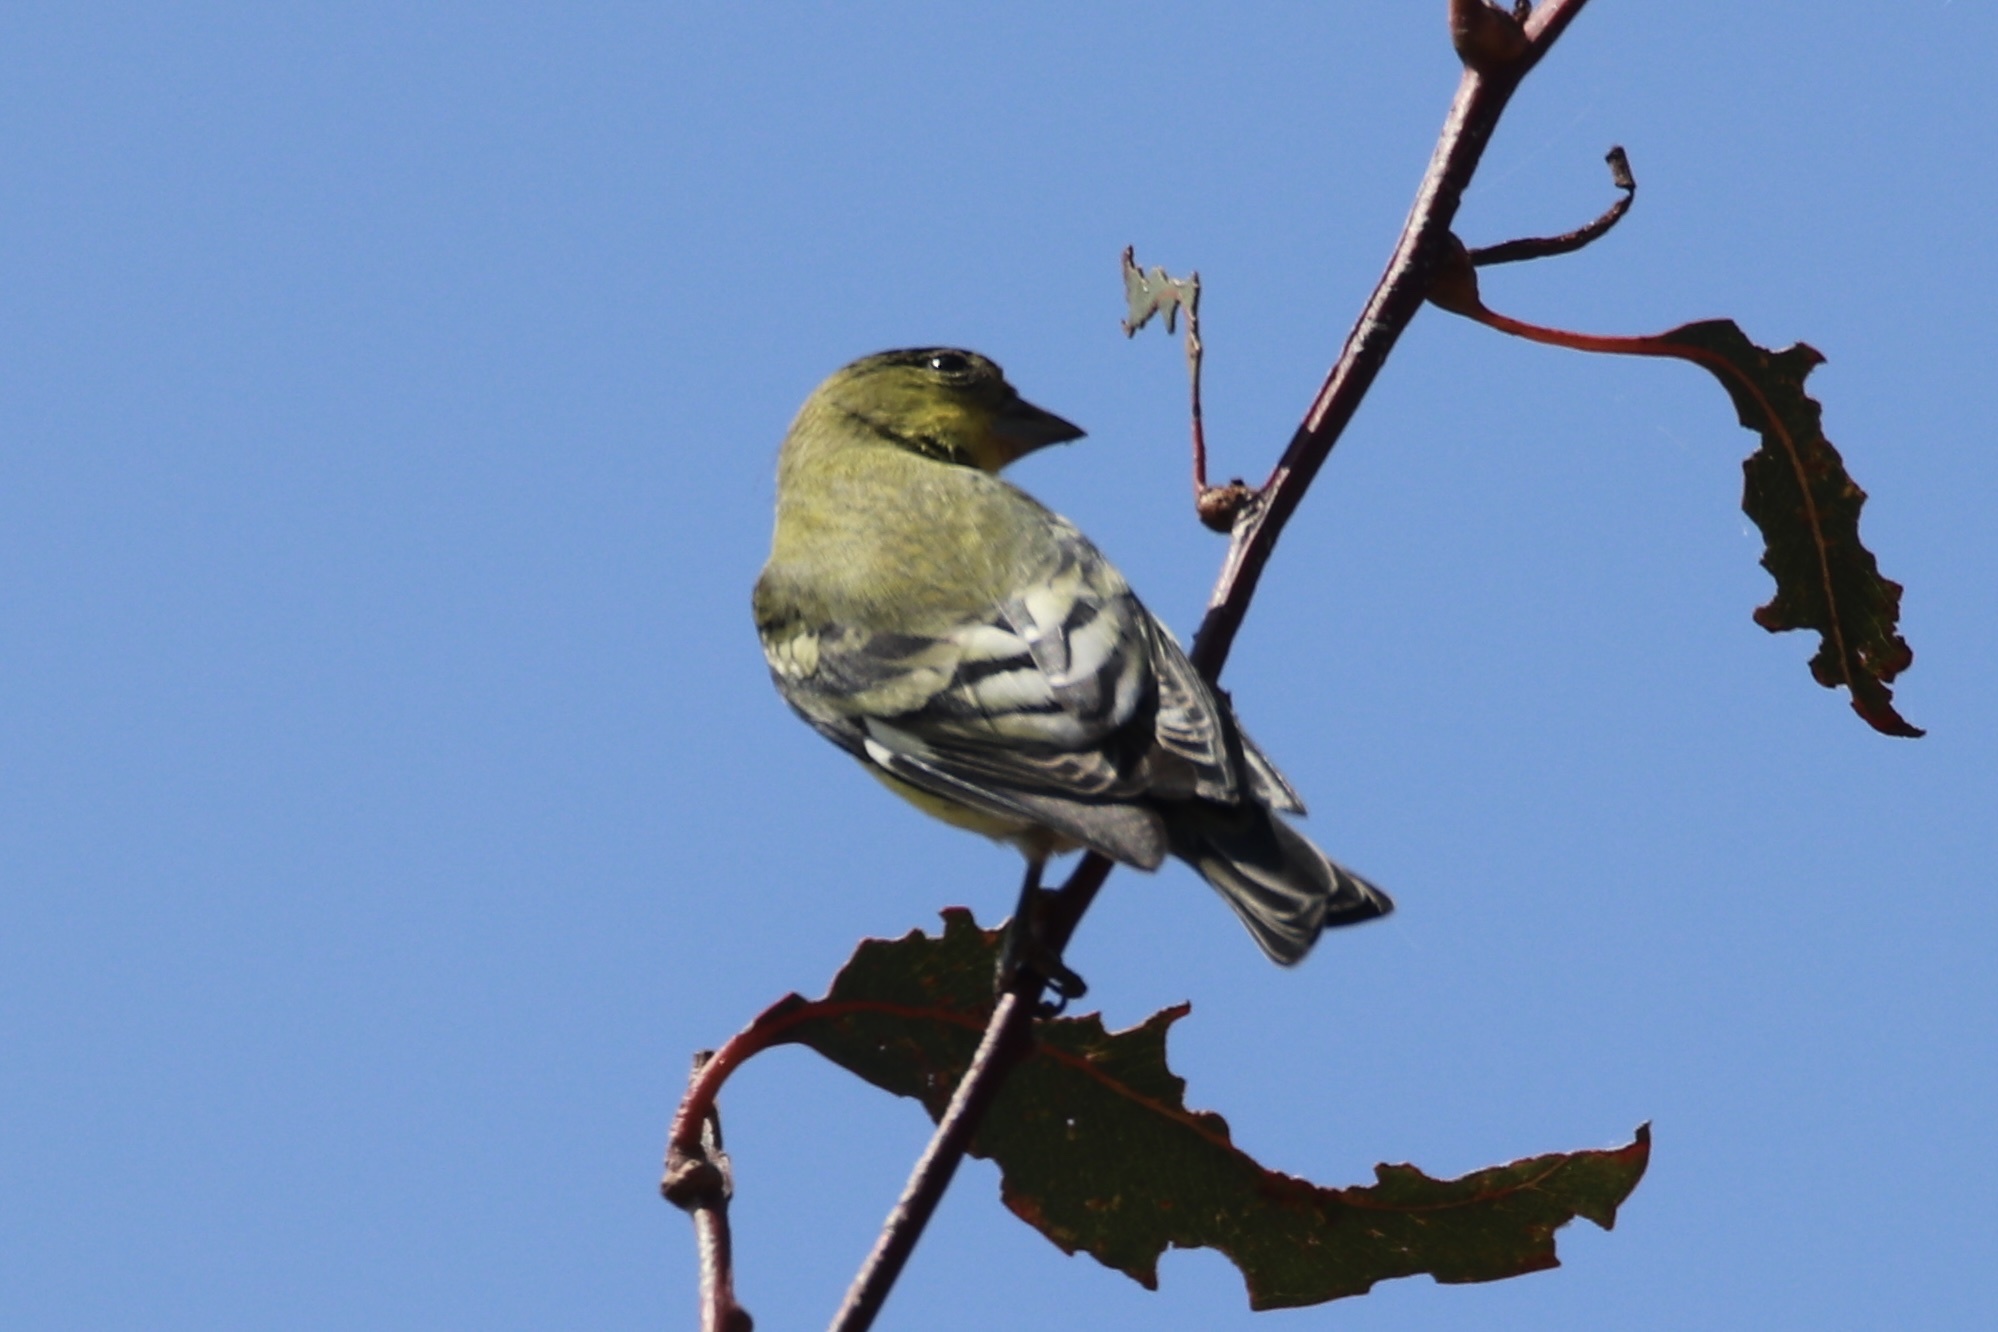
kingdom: Animalia
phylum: Chordata
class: Aves
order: Passeriformes
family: Fringillidae
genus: Spinus
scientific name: Spinus psaltria
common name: Lesser goldfinch
